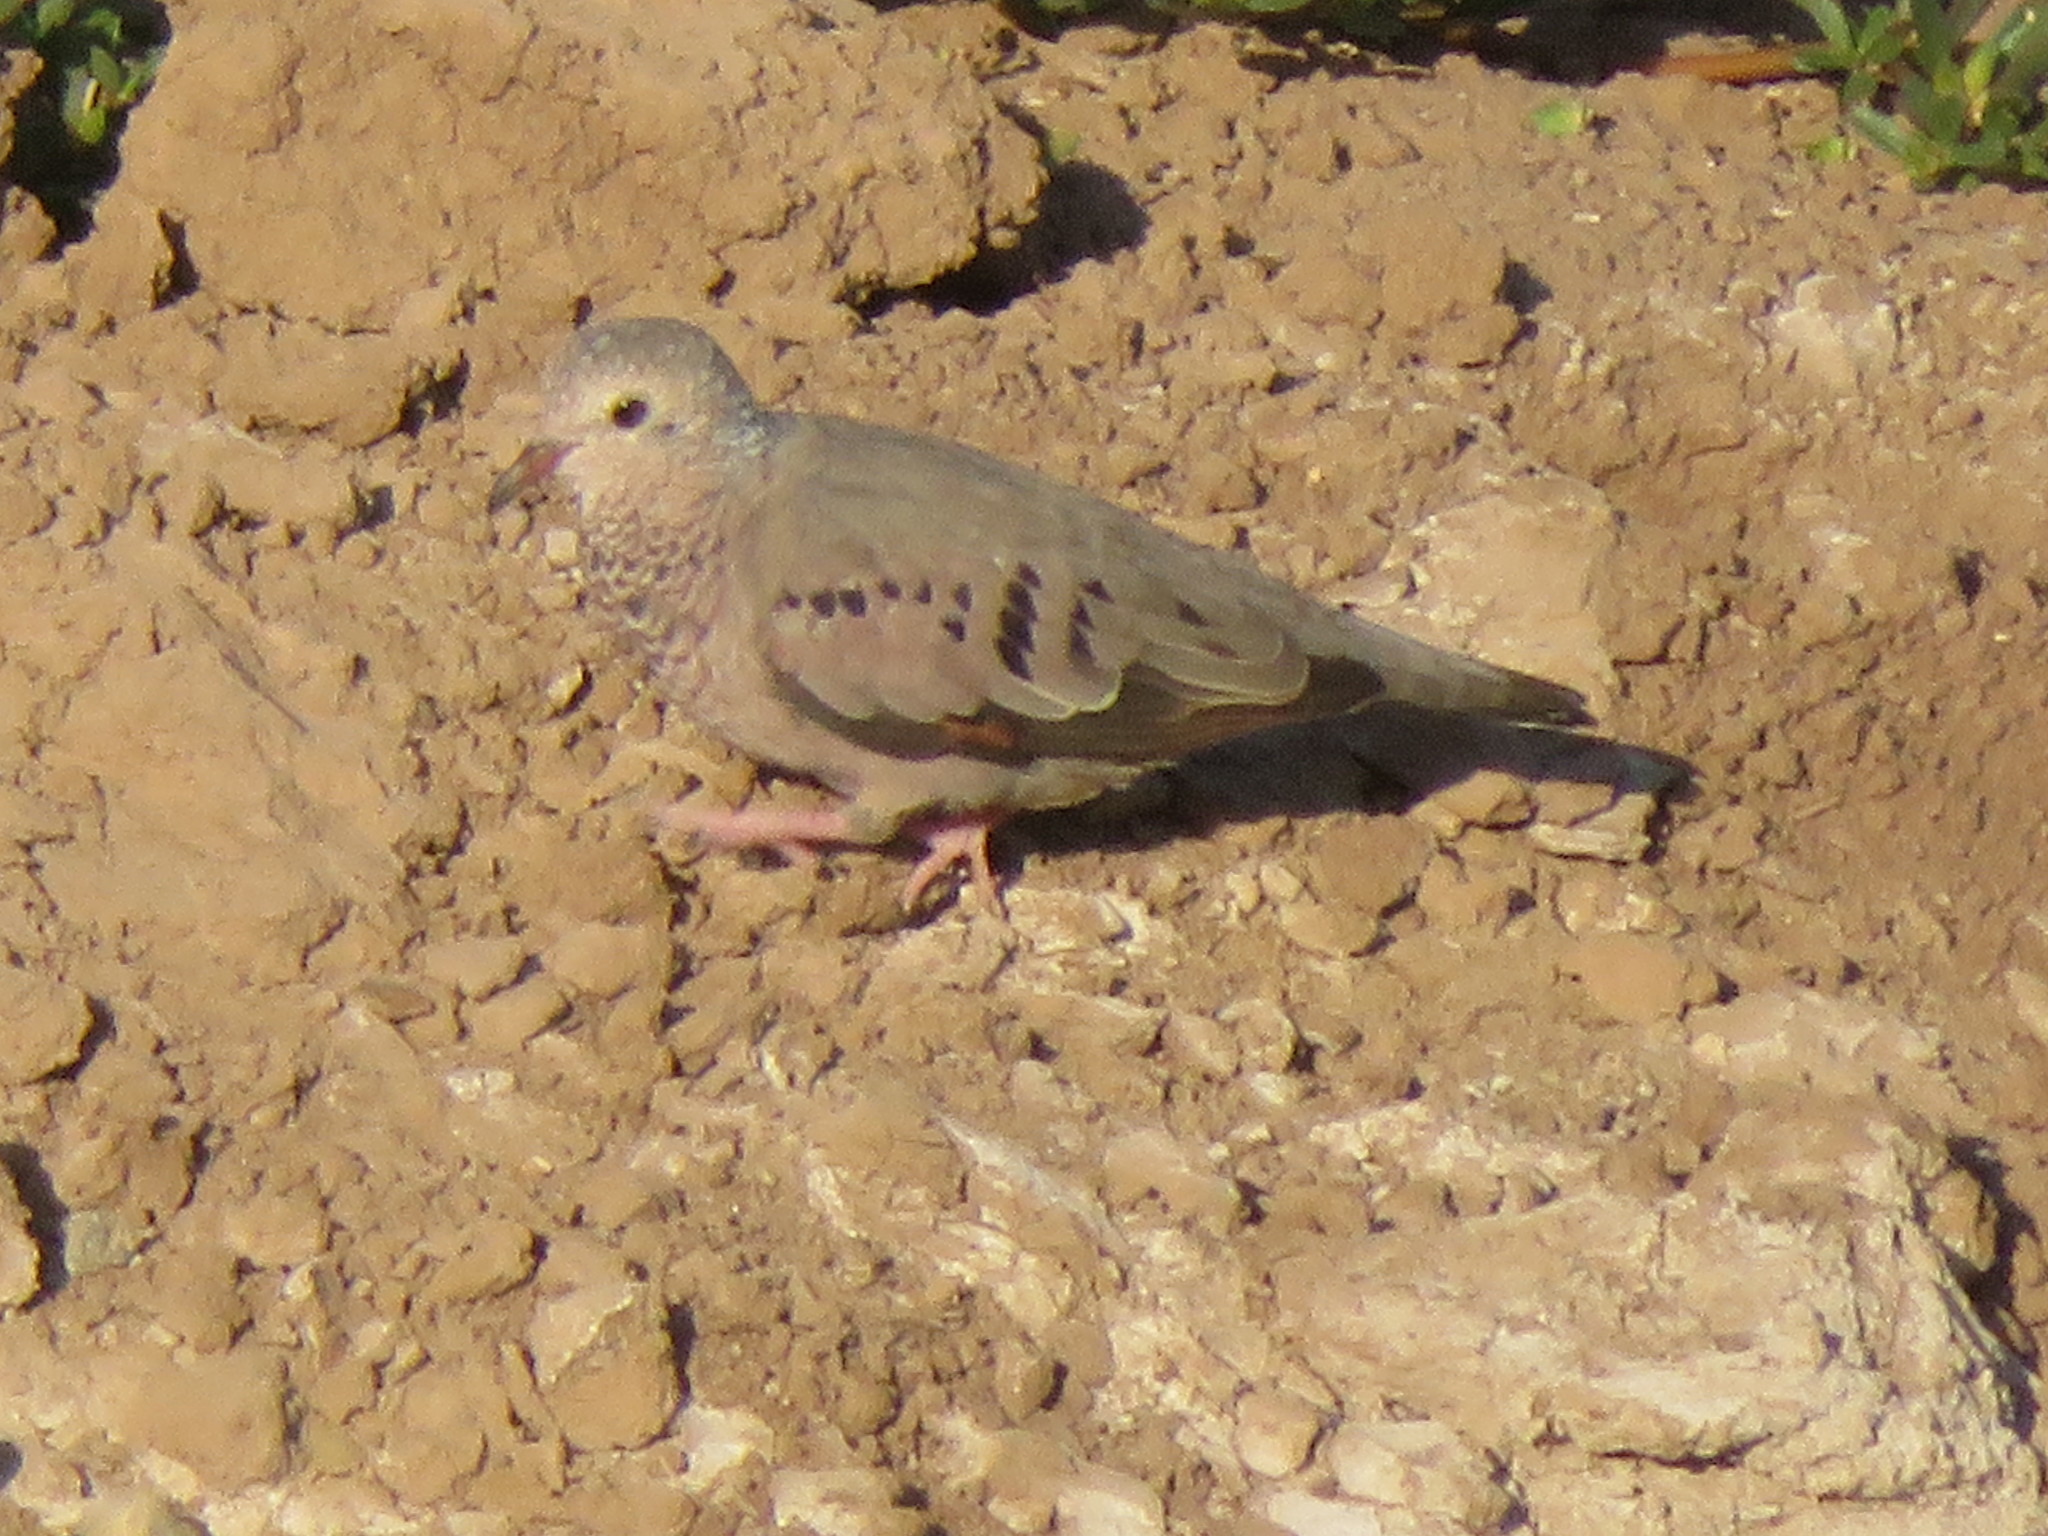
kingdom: Animalia
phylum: Chordata
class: Aves
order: Columbiformes
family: Columbidae
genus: Columbina
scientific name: Columbina passerina
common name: Common ground-dove
